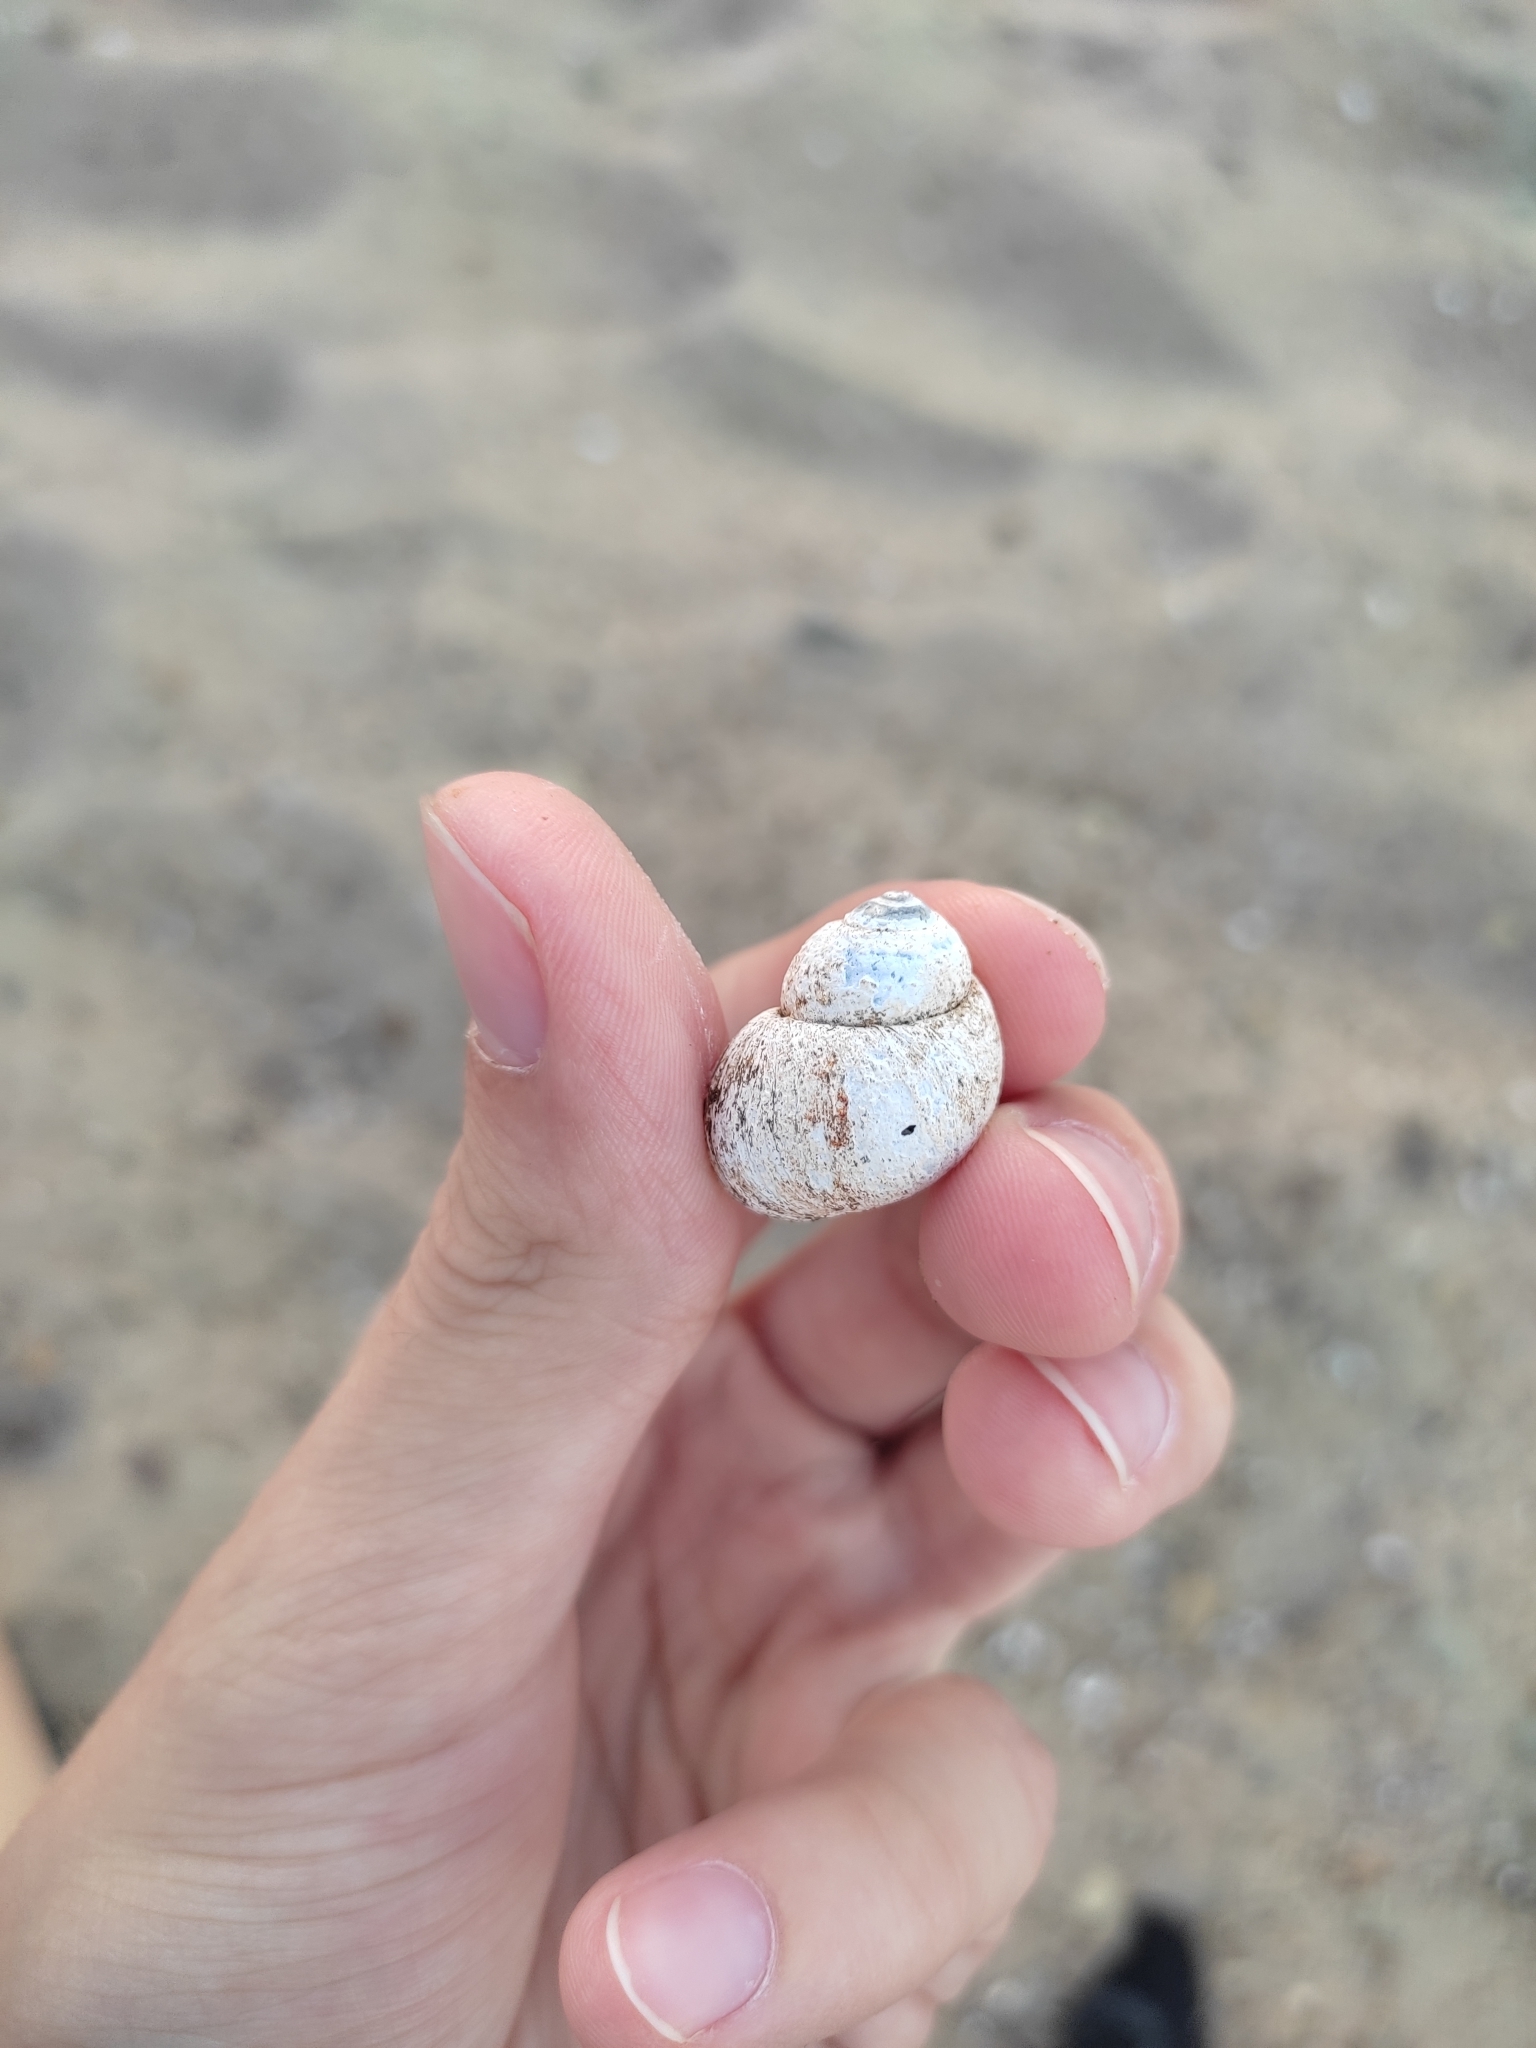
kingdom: Animalia
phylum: Mollusca
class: Gastropoda
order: Architaenioglossa
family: Viviparidae
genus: Viviparus
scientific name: Viviparus viviparus
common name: River snail
